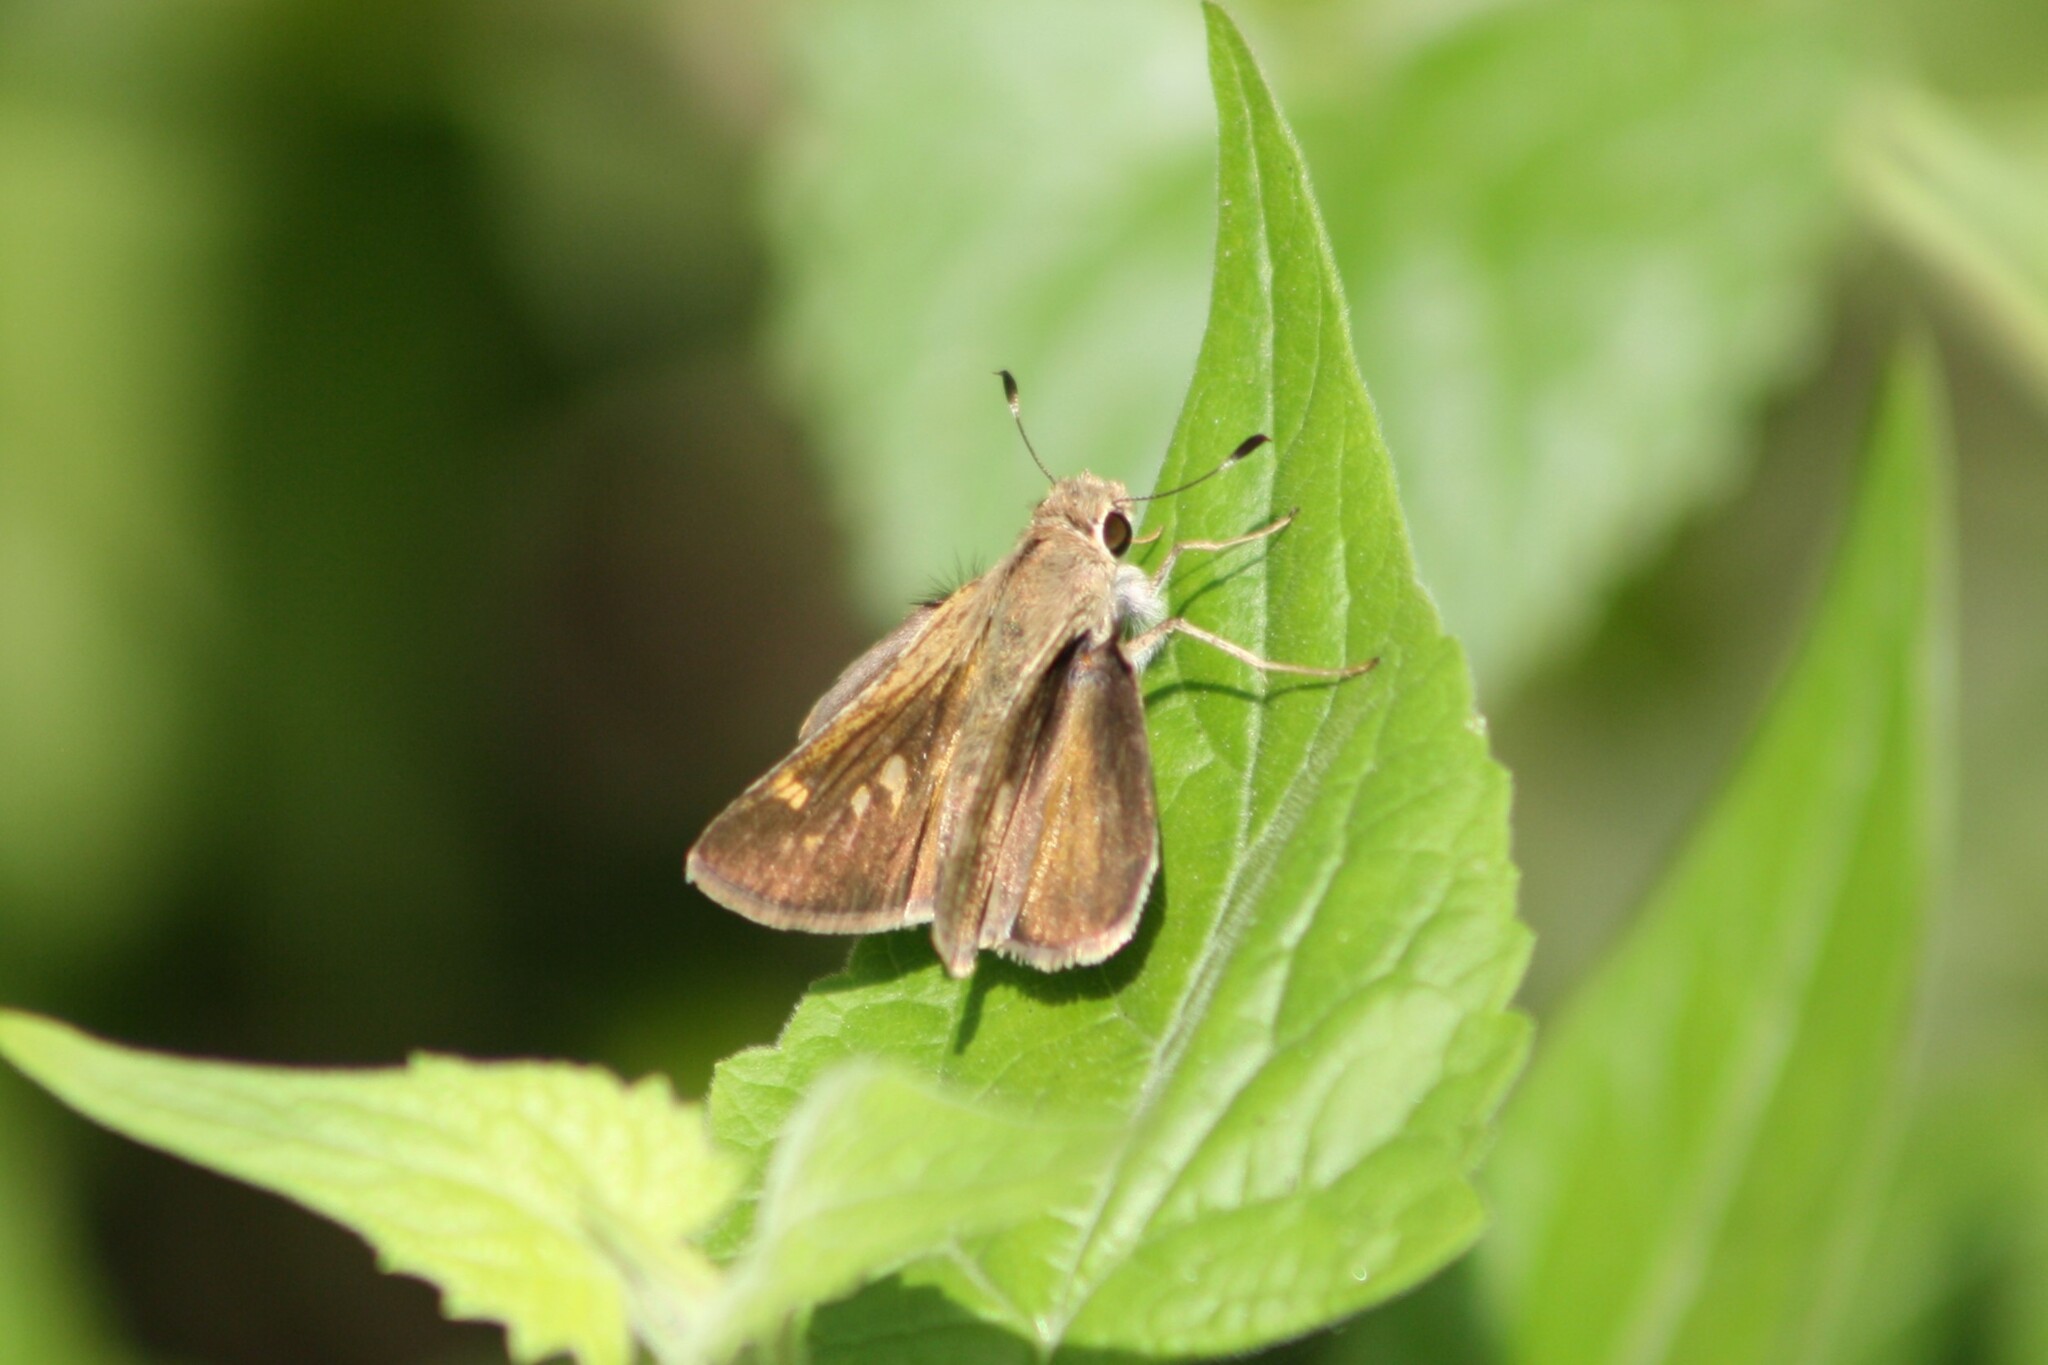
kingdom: Animalia
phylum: Arthropoda
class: Insecta
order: Lepidoptera
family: Hesperiidae
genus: Polites
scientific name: Polites vibex
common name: Whirlabout
